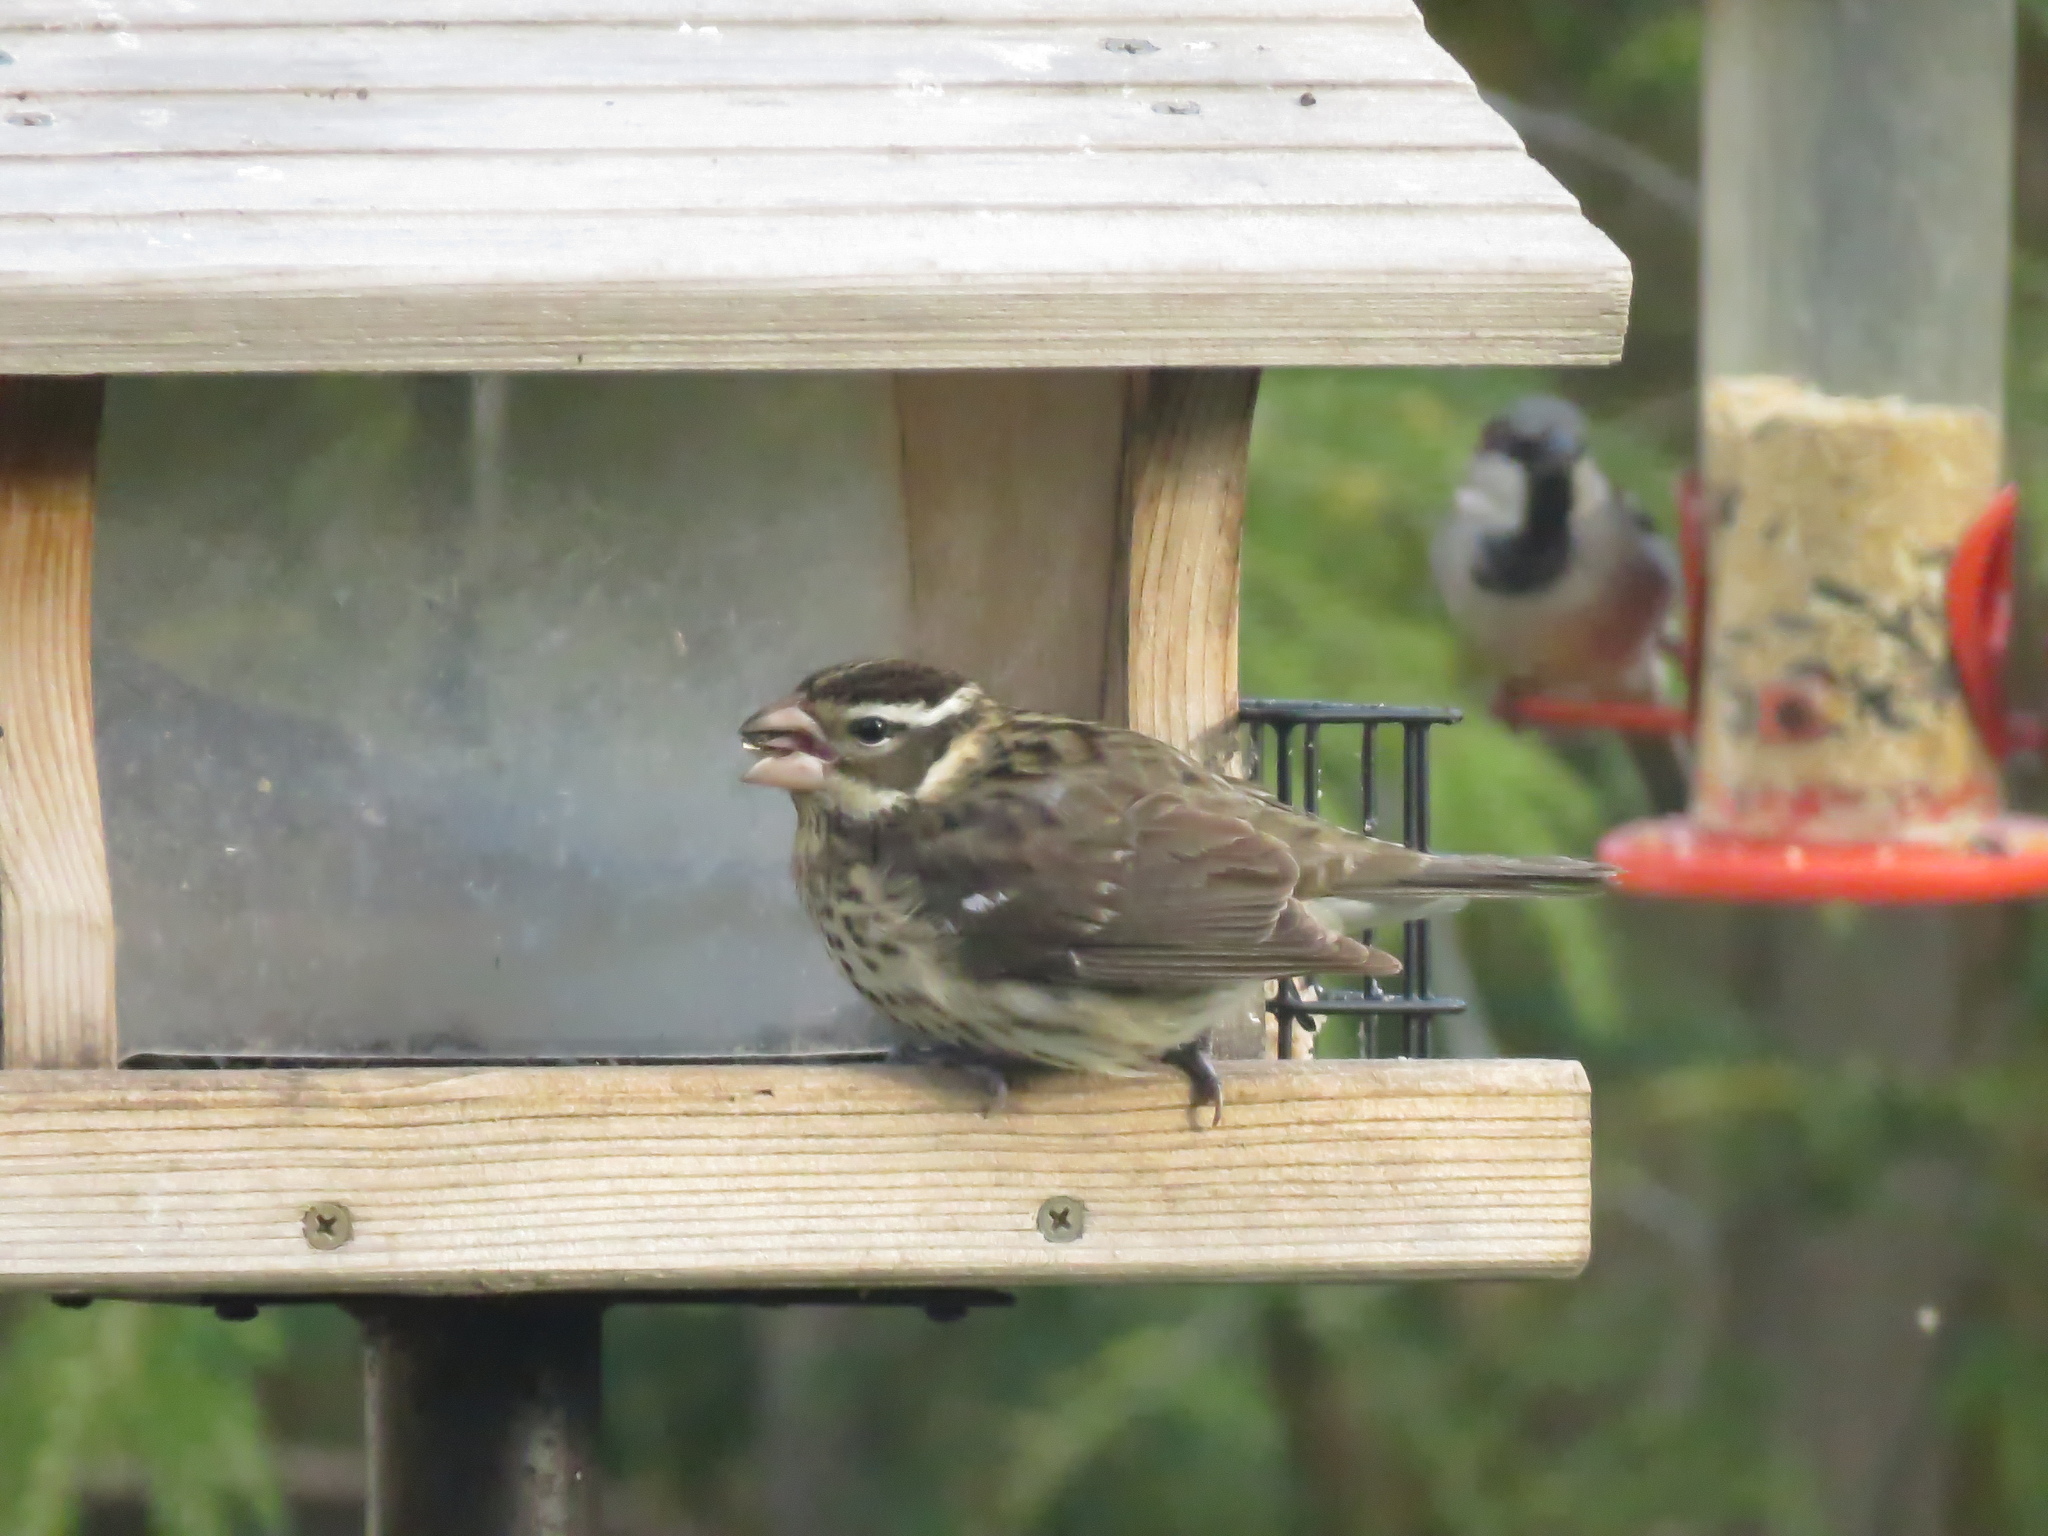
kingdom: Animalia
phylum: Chordata
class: Aves
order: Passeriformes
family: Cardinalidae
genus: Pheucticus
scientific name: Pheucticus ludovicianus
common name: Rose-breasted grosbeak
